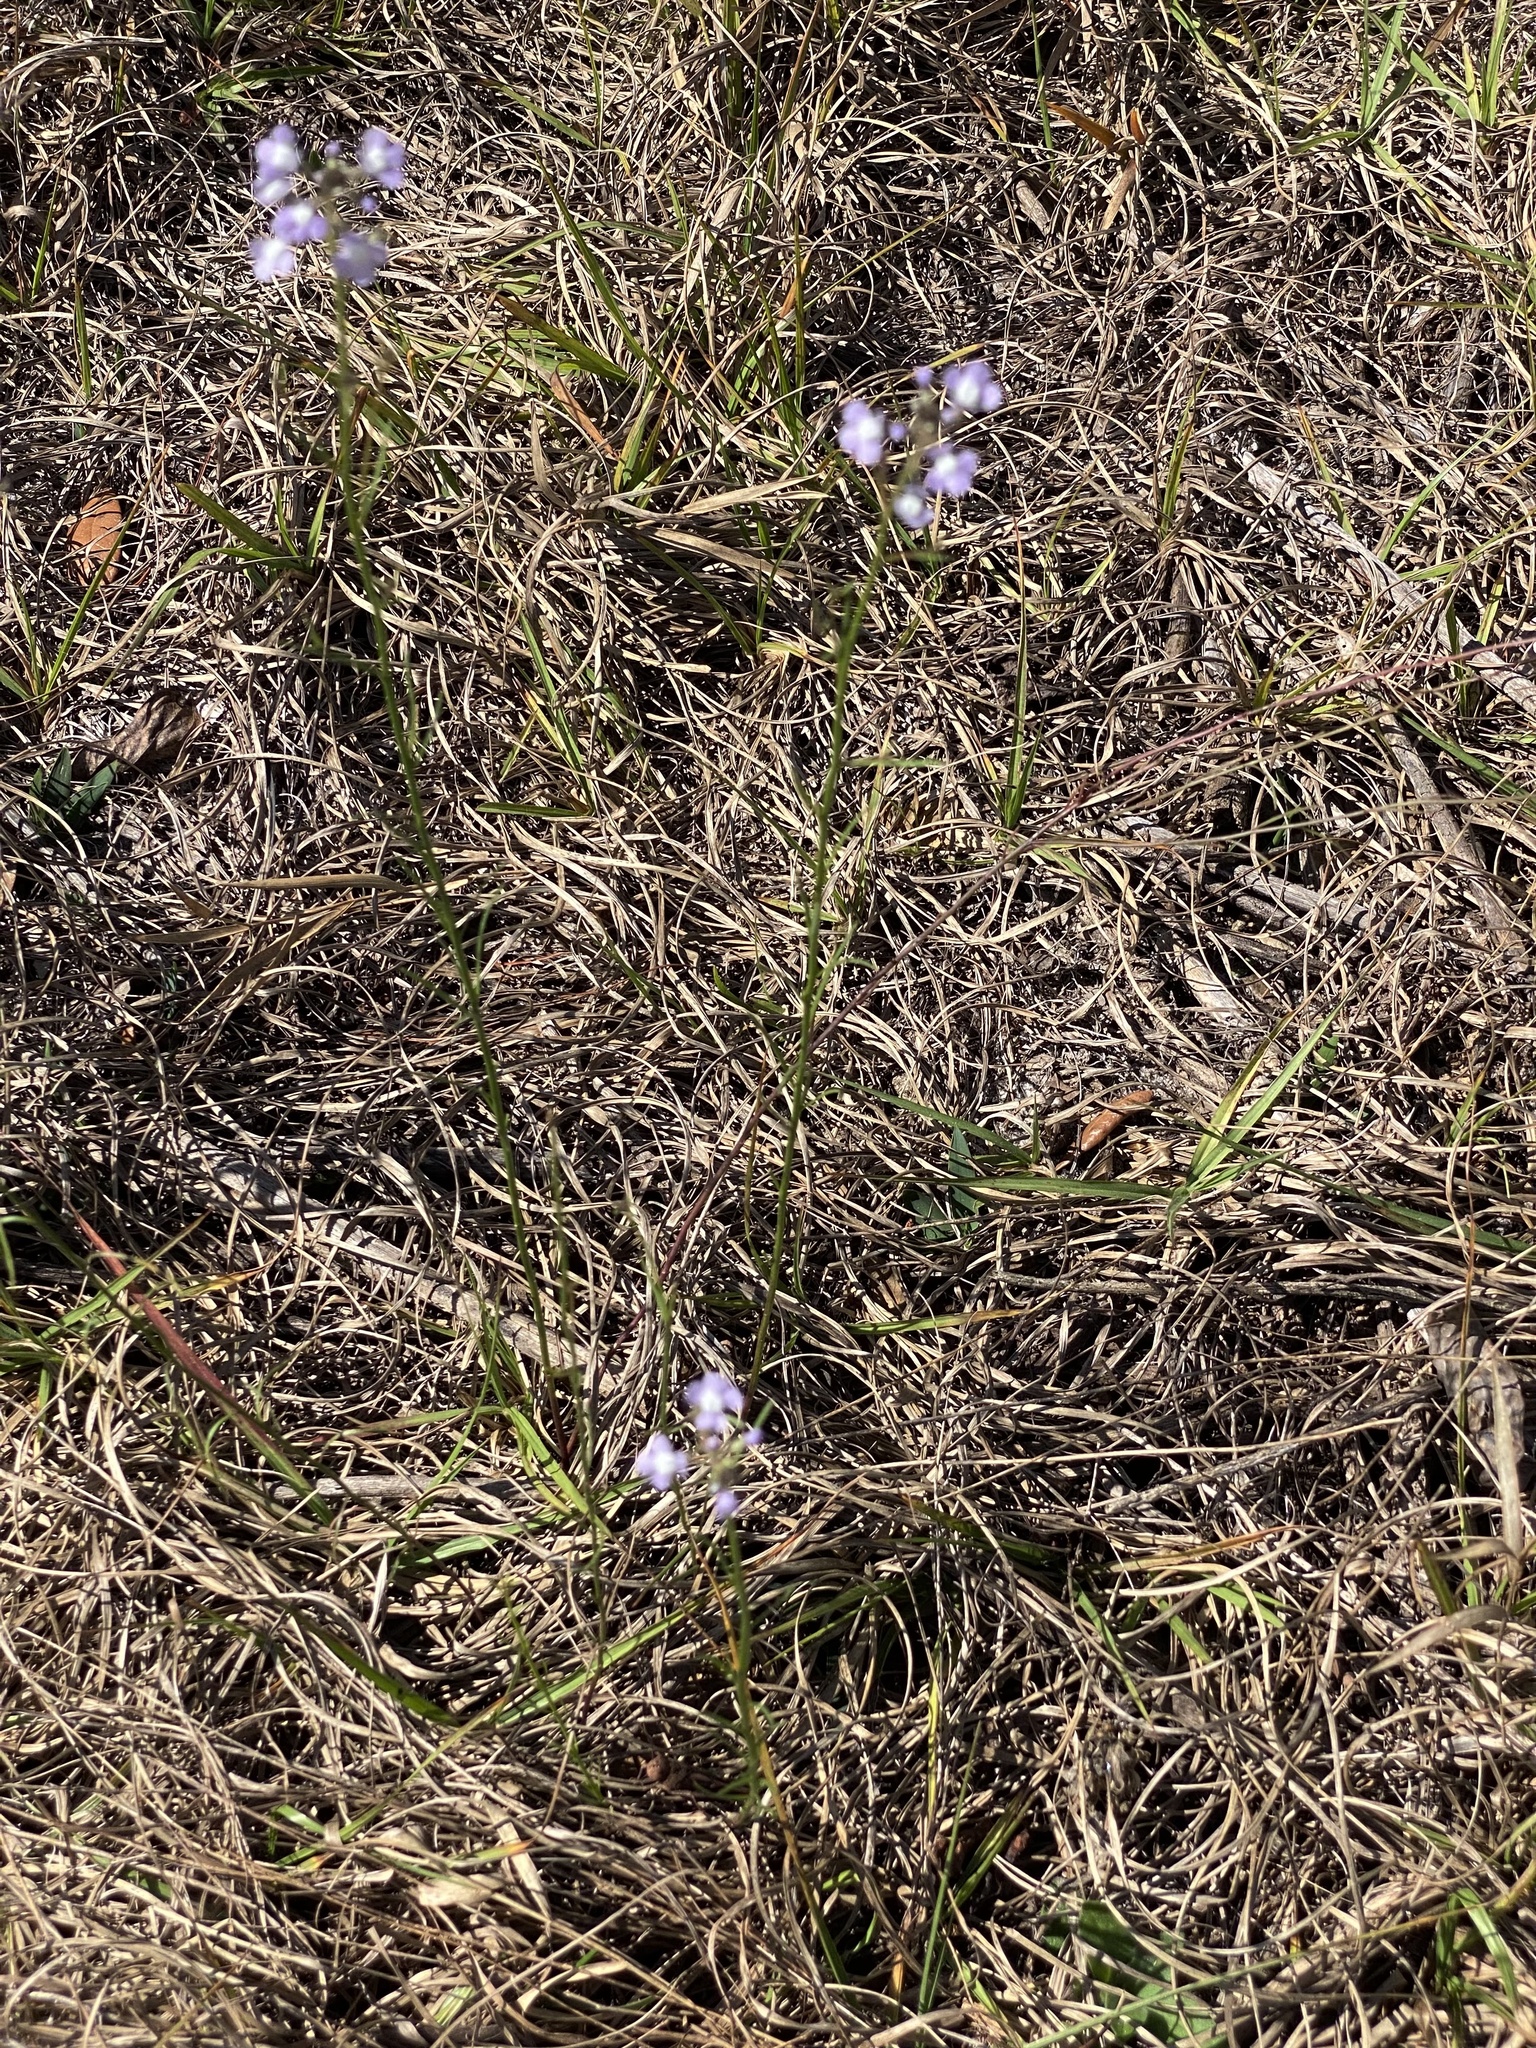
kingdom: Plantae
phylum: Tracheophyta
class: Magnoliopsida
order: Lamiales
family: Plantaginaceae
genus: Nuttallanthus
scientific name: Nuttallanthus floridanus
